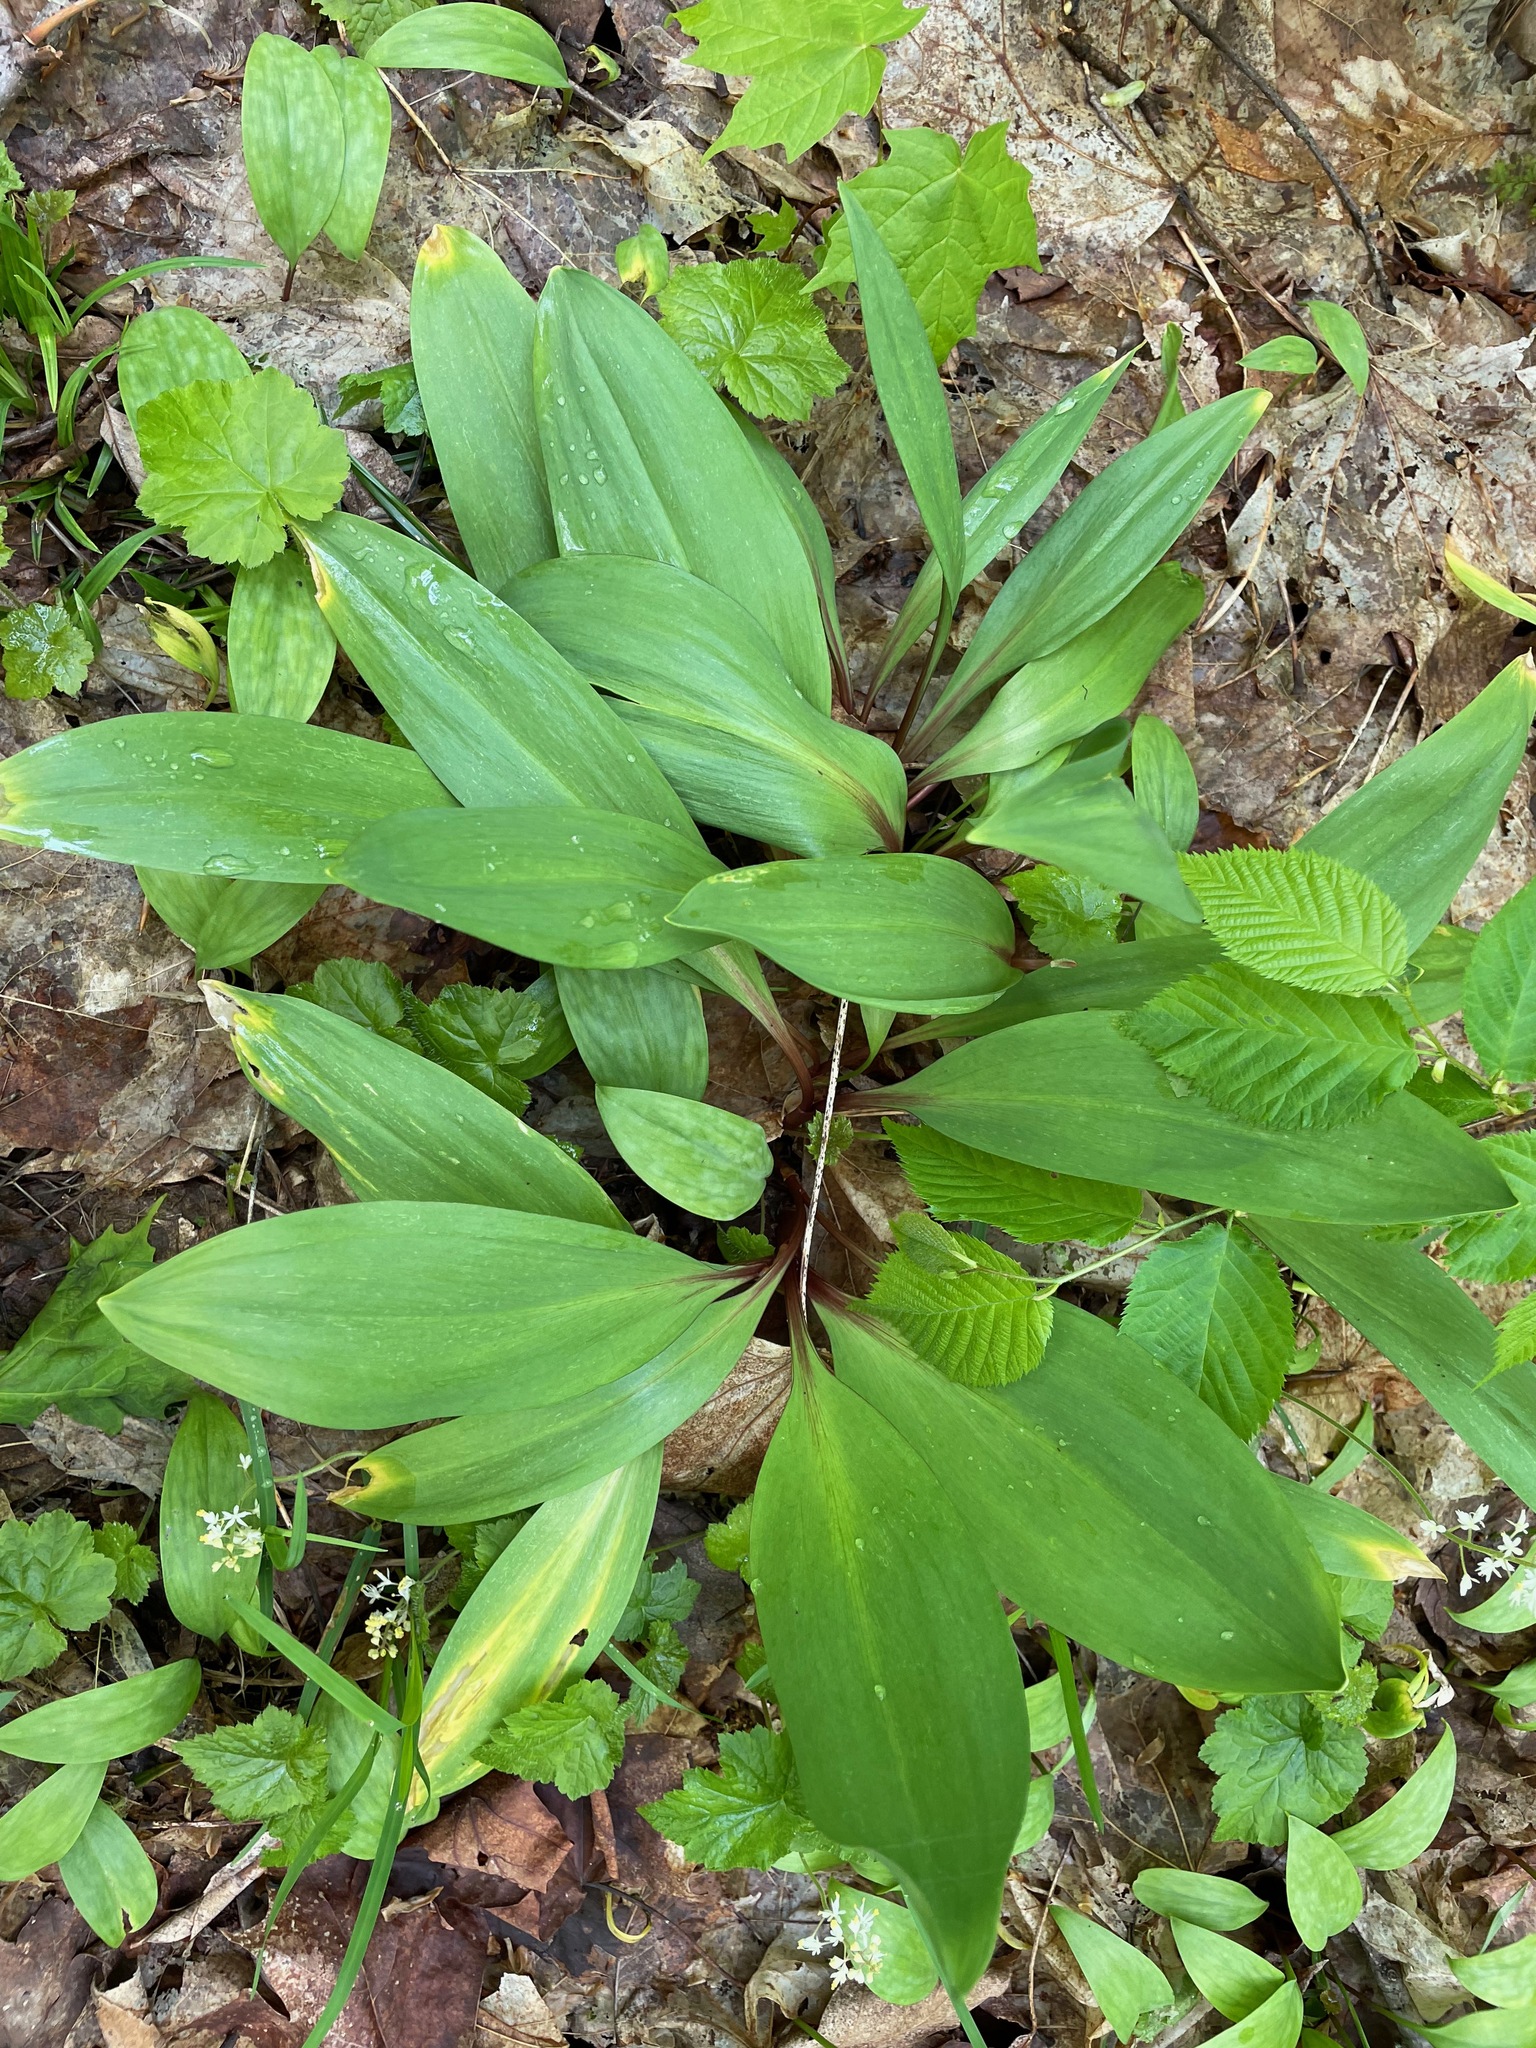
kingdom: Plantae
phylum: Tracheophyta
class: Liliopsida
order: Asparagales
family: Amaryllidaceae
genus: Allium
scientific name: Allium tricoccum
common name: Ramp
